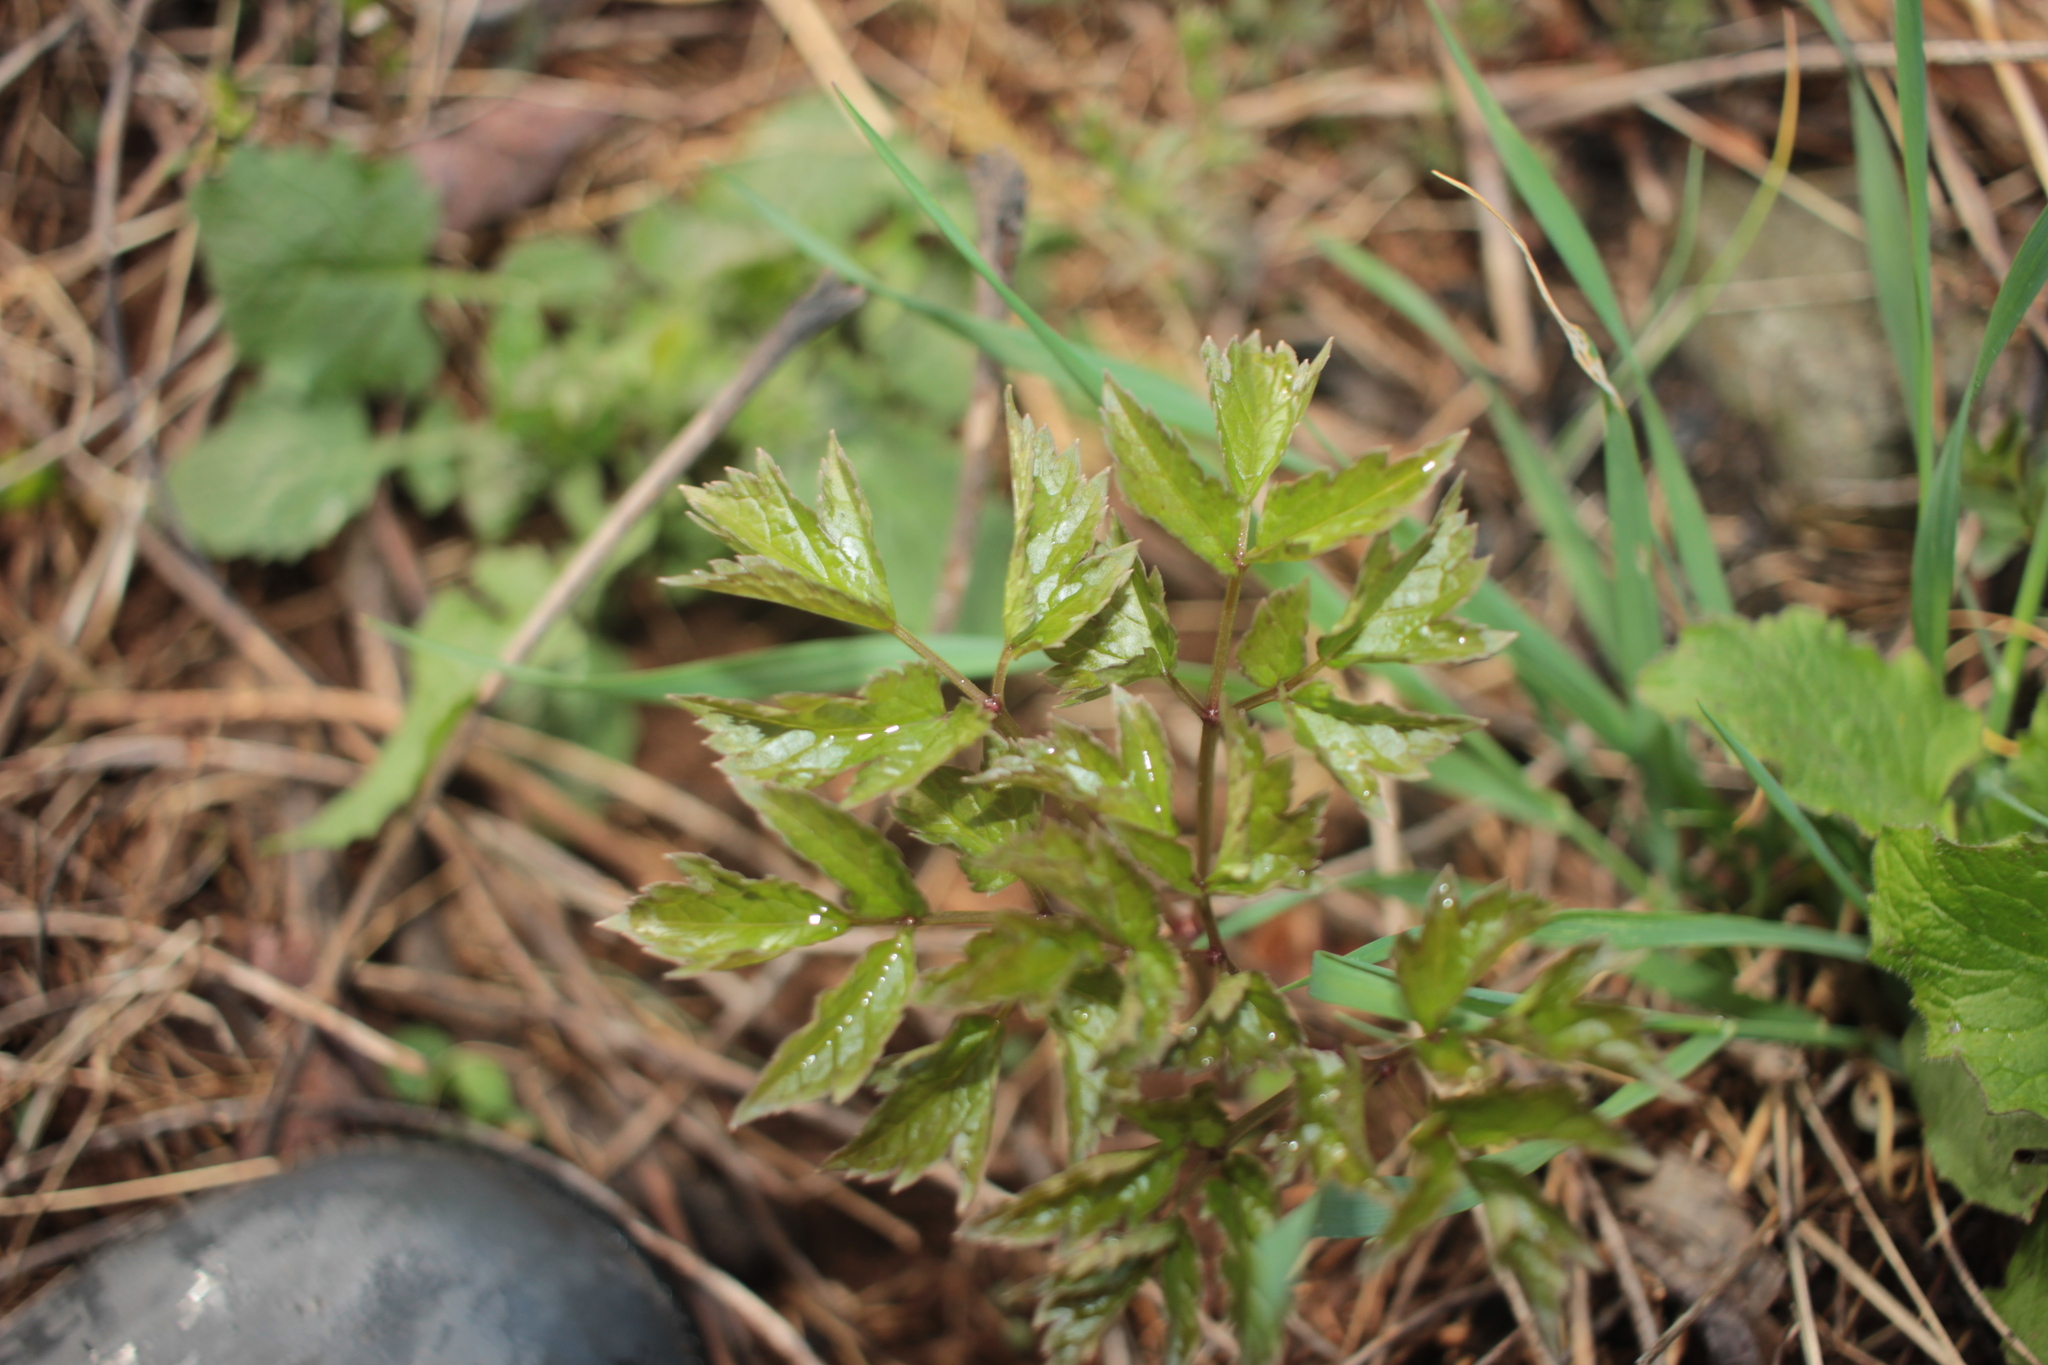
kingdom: Plantae
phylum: Tracheophyta
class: Magnoliopsida
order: Sapindales
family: Sapindaceae
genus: Acer
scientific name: Acer negundo
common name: Ashleaf maple
